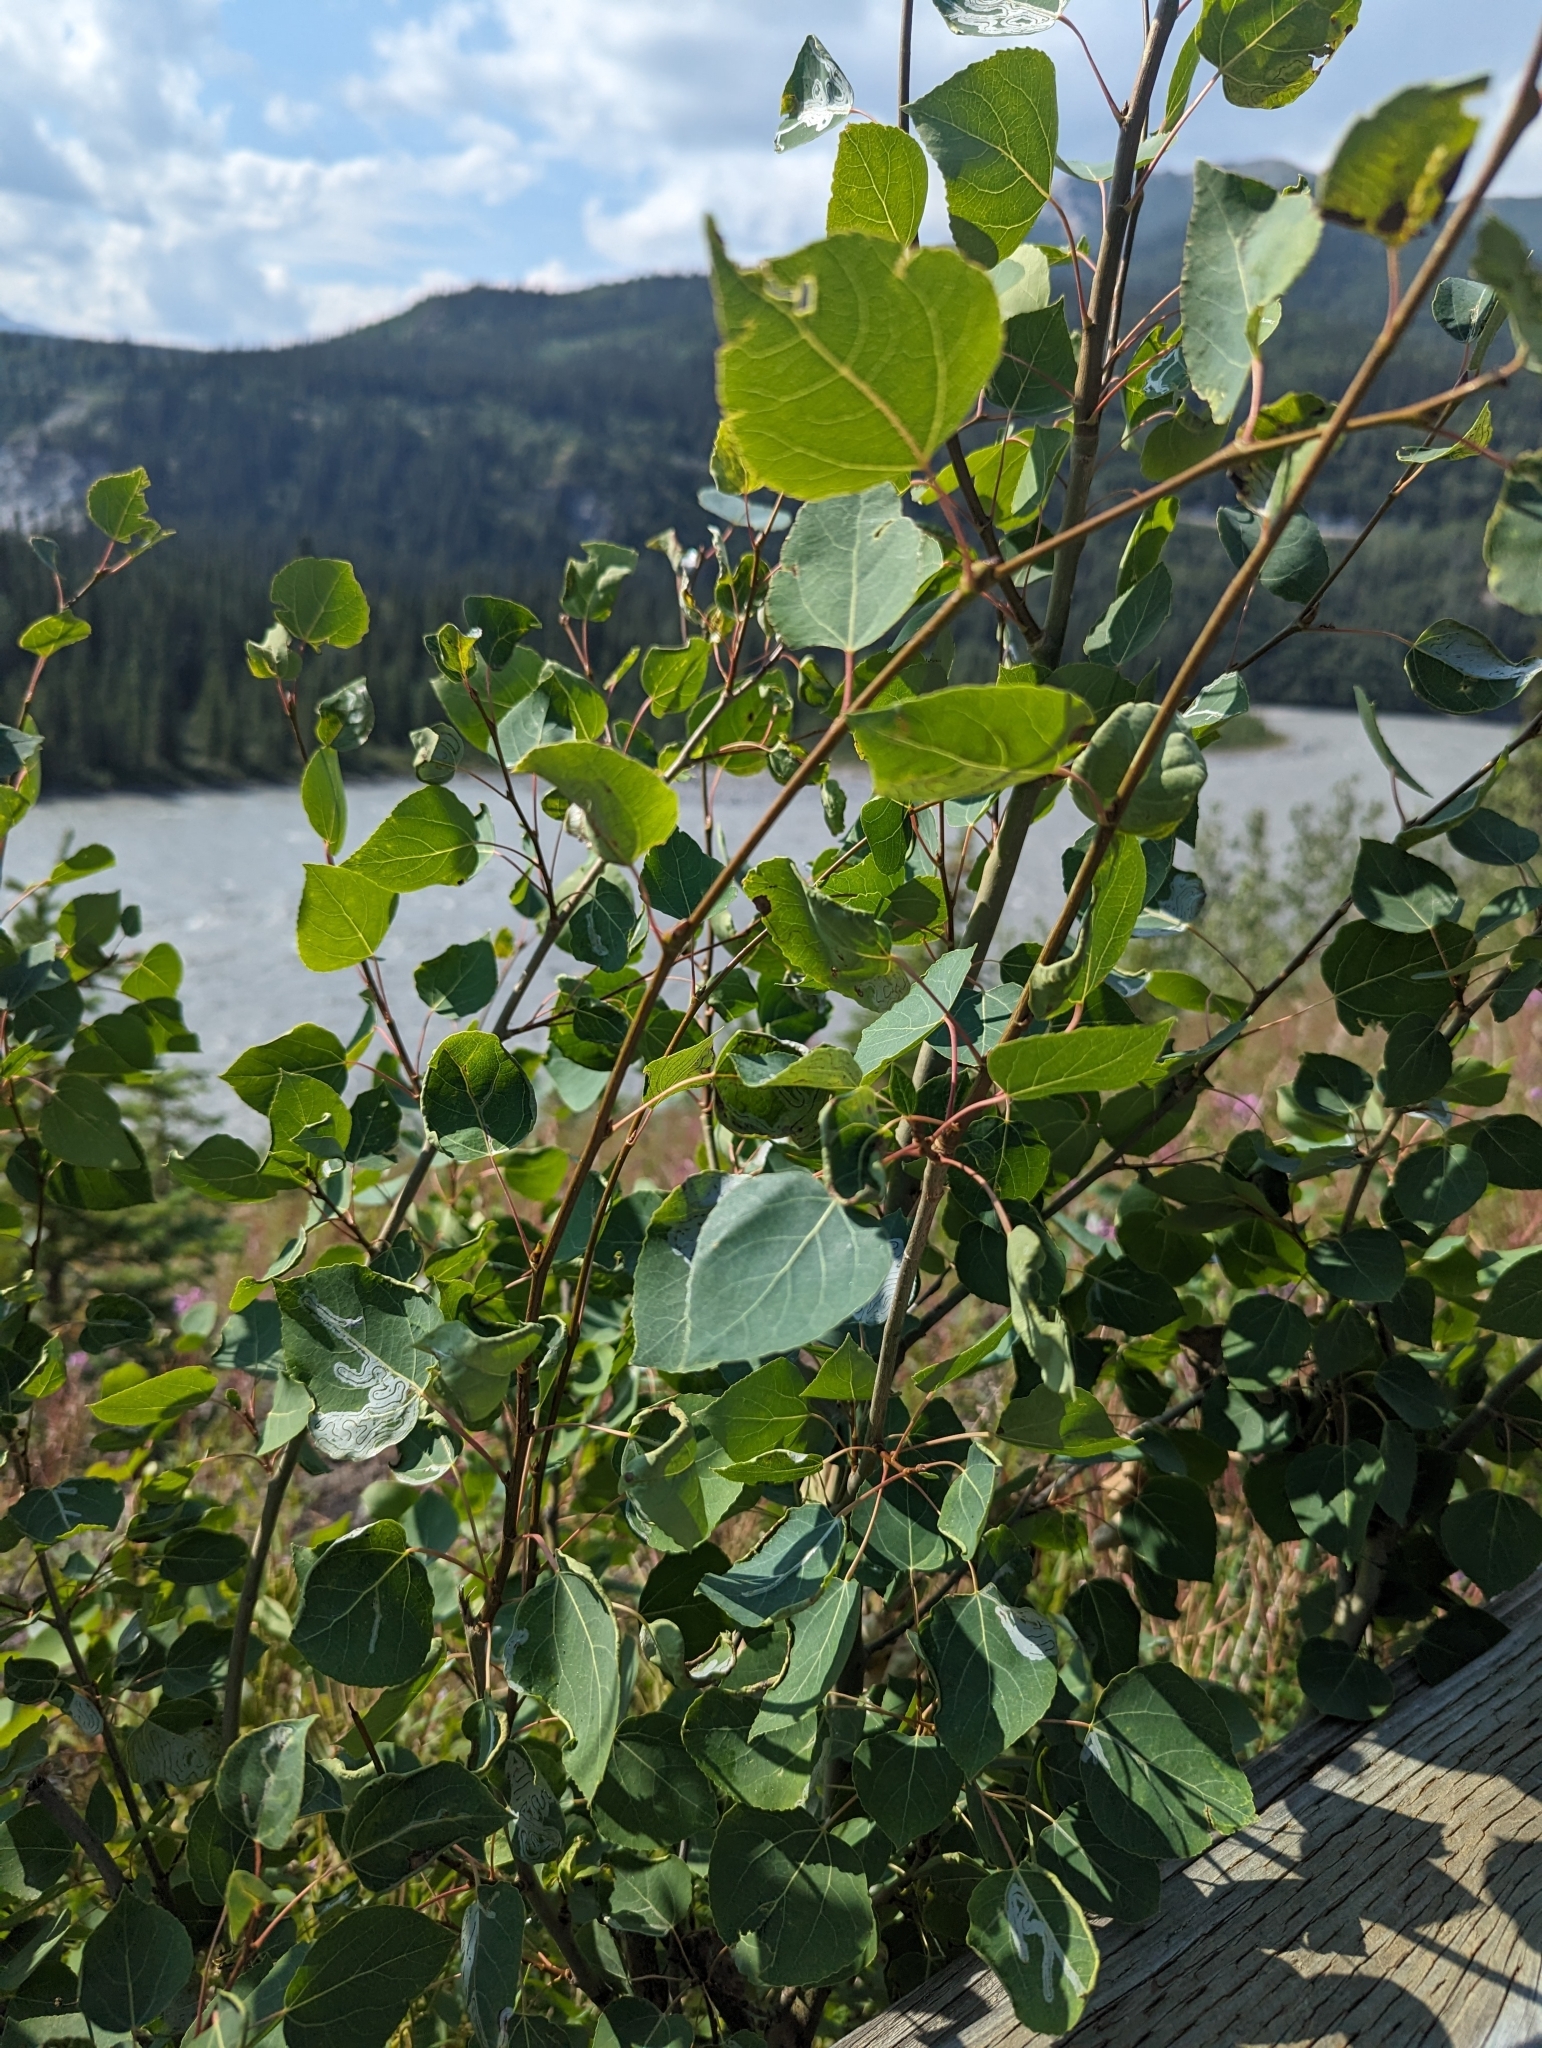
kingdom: Plantae
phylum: Tracheophyta
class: Magnoliopsida
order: Malpighiales
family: Salicaceae
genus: Populus
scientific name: Populus tremuloides
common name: Quaking aspen
